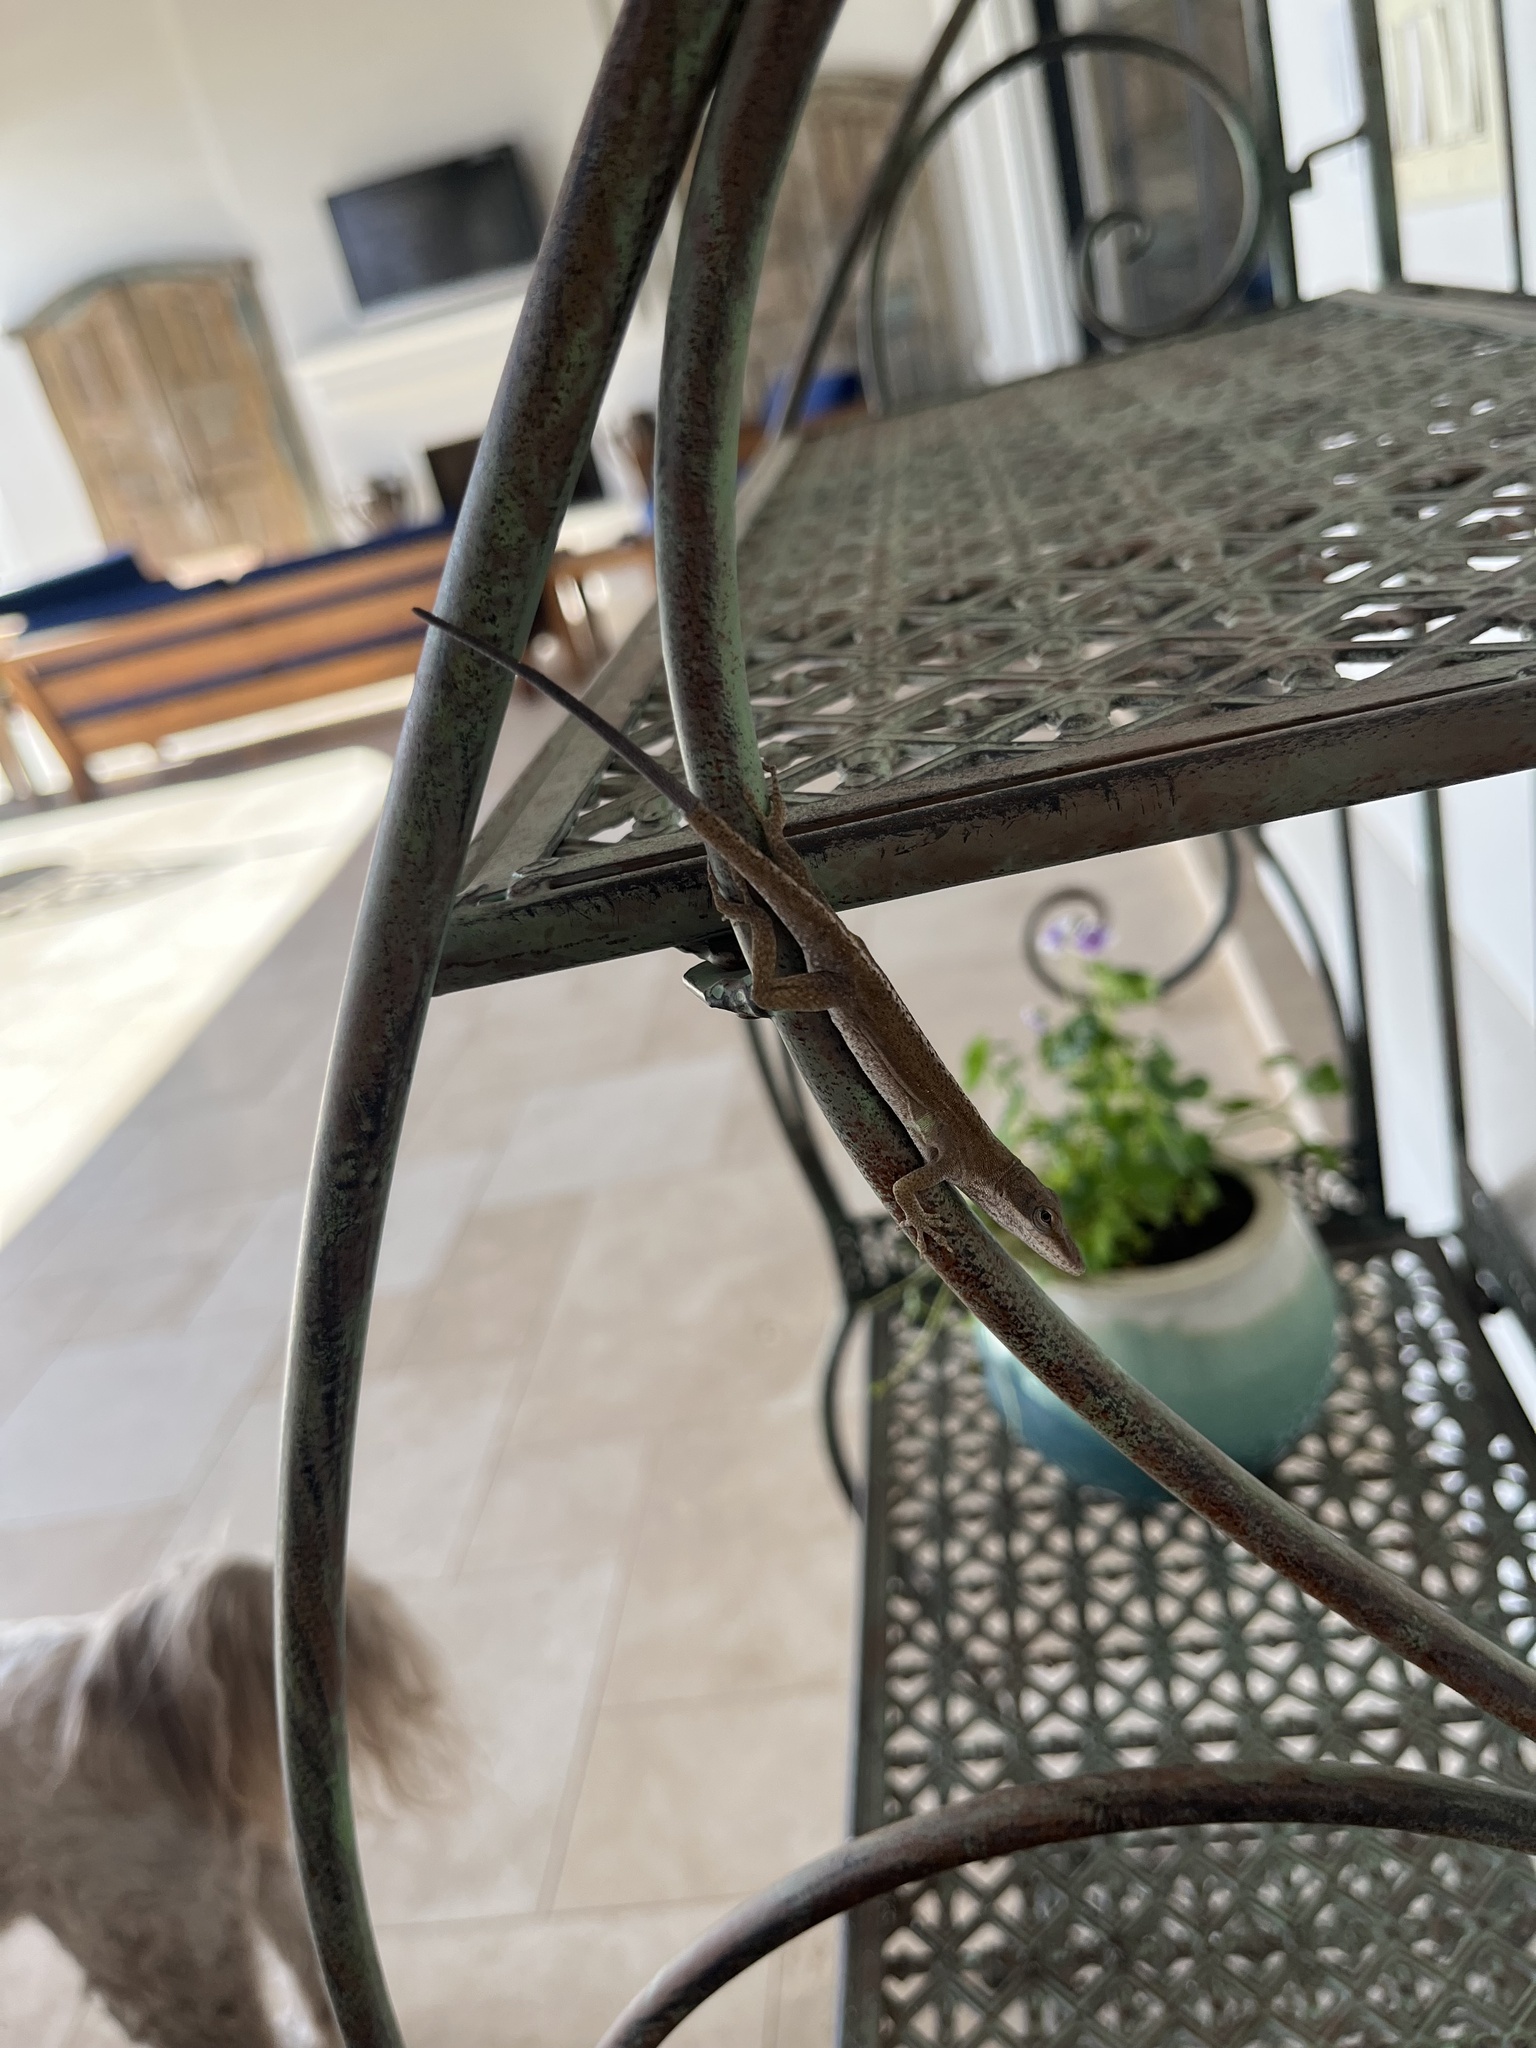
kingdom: Animalia
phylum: Chordata
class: Squamata
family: Dactyloidae
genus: Anolis
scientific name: Anolis carolinensis
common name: Green anole
